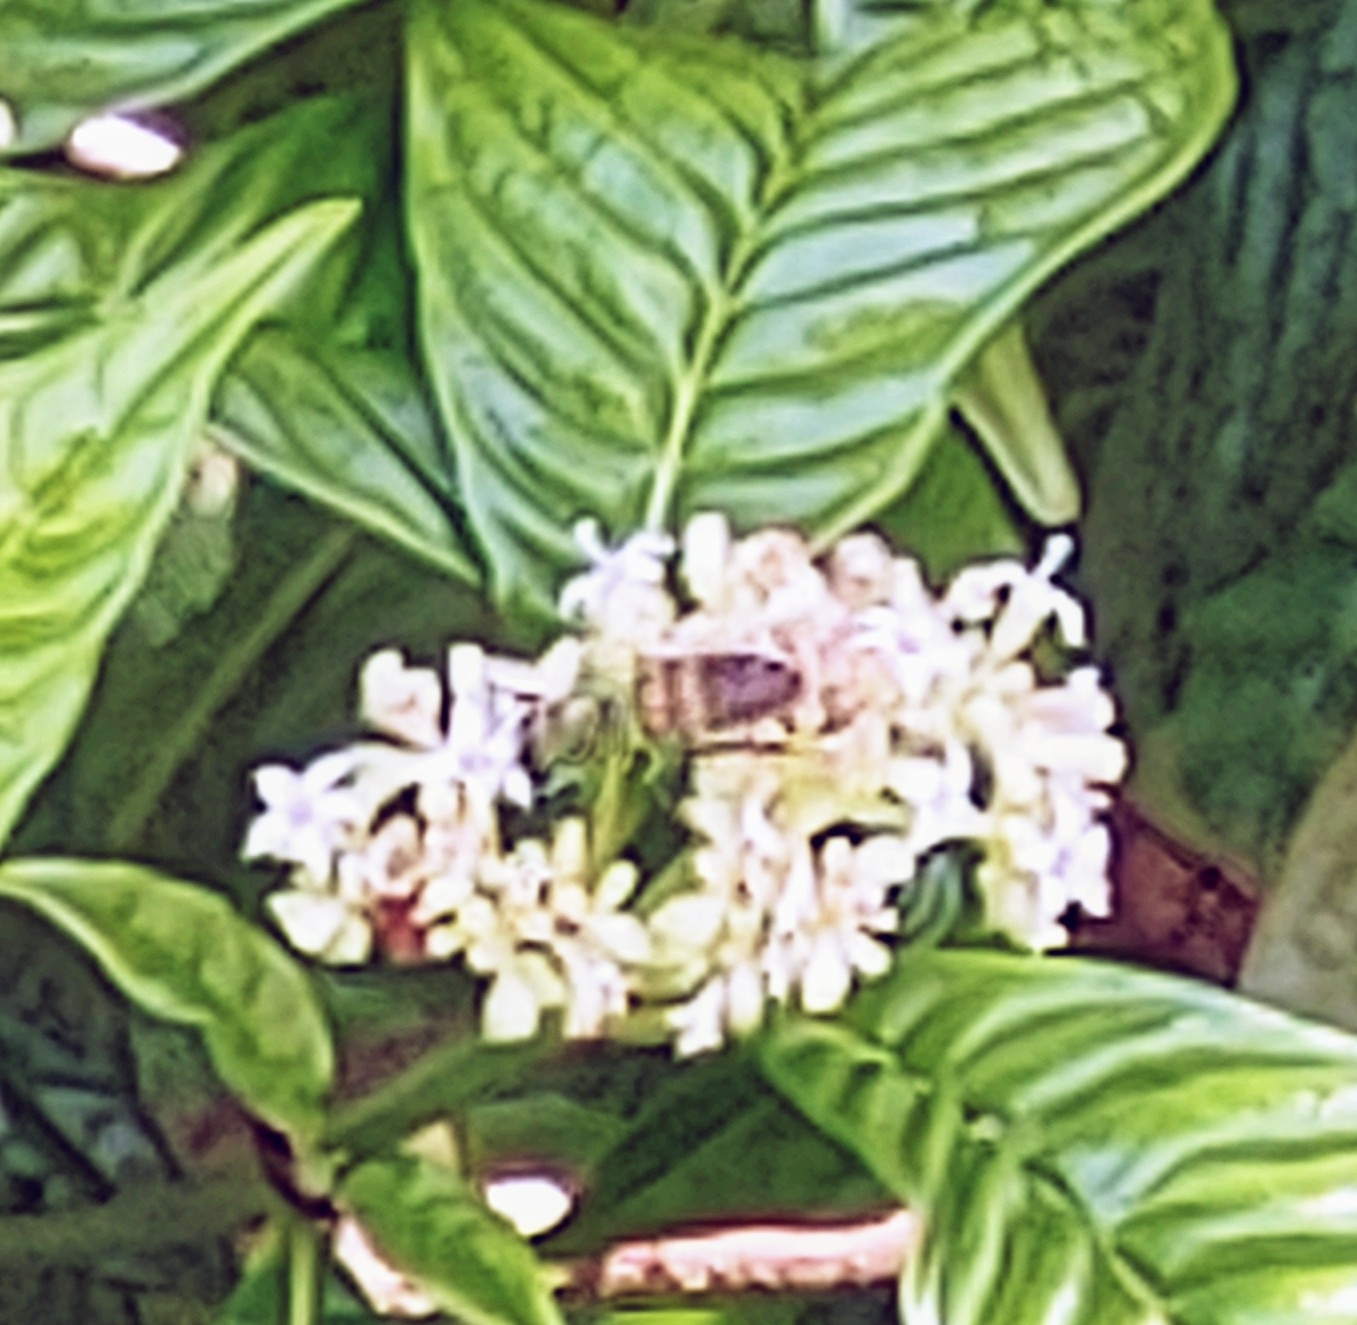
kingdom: Animalia
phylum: Arthropoda
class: Insecta
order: Hymenoptera
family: Apidae
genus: Apis
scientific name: Apis mellifera
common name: Honey bee
